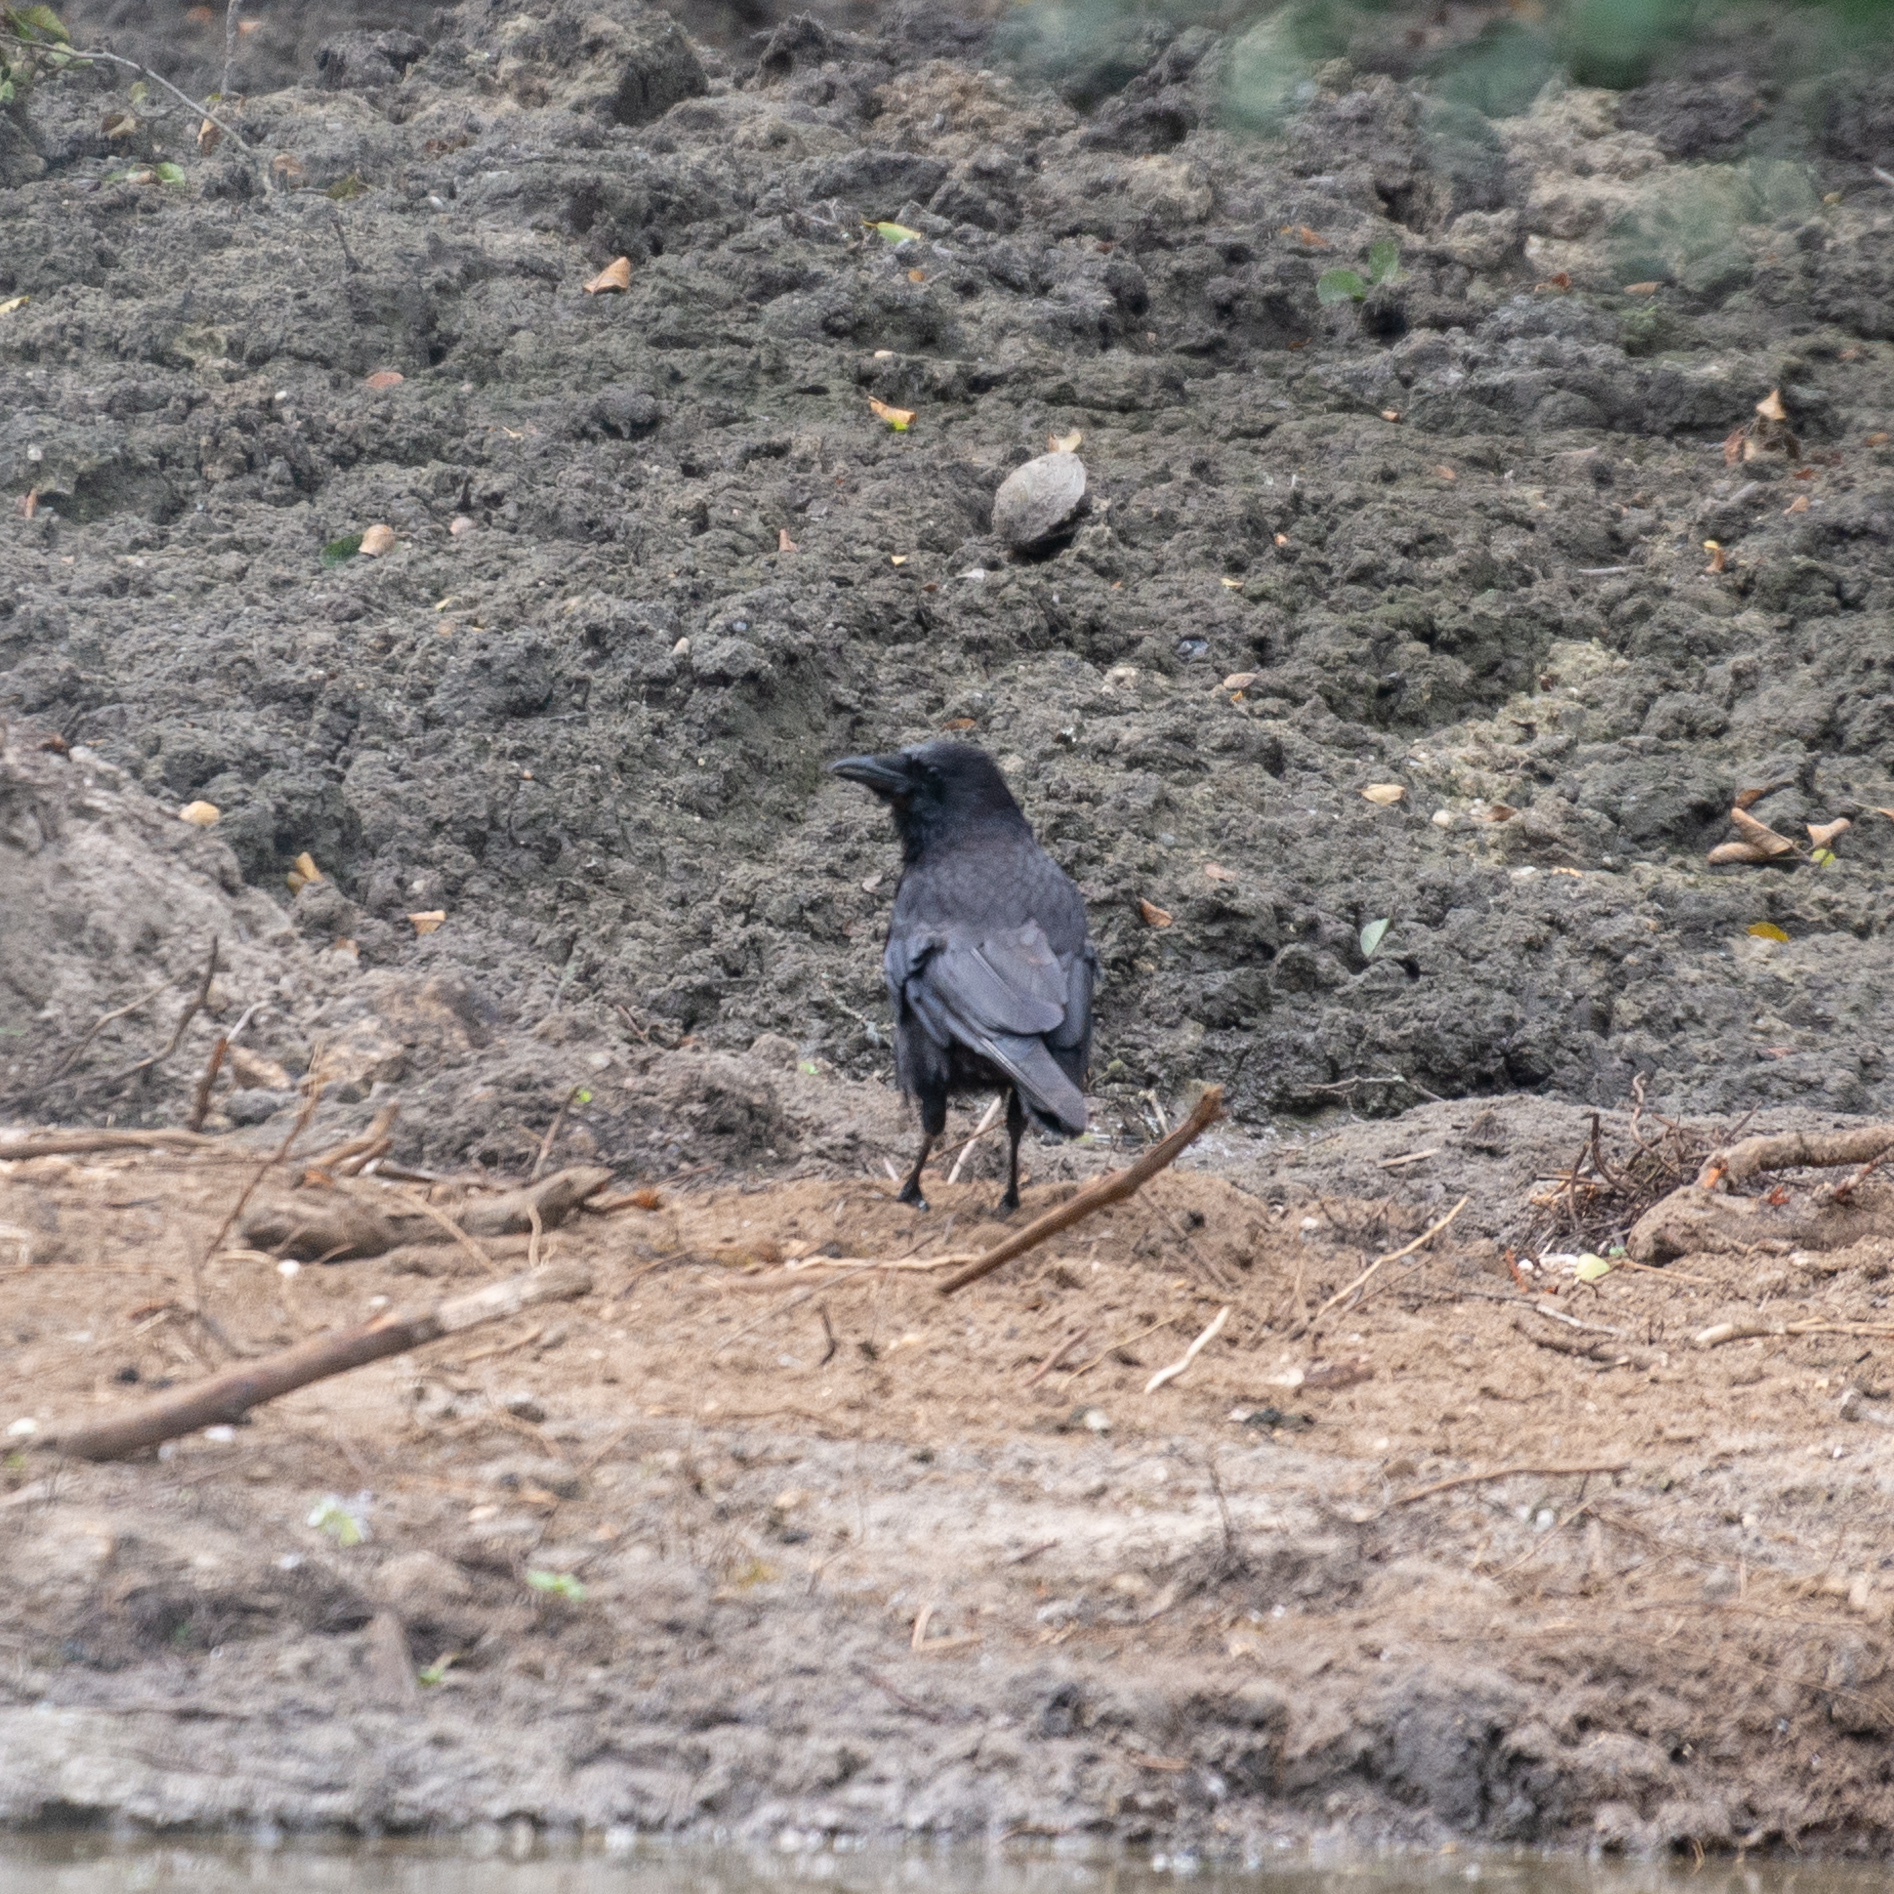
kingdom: Animalia
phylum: Chordata
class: Aves
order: Passeriformes
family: Corvidae
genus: Corvus
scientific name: Corvus corone
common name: Carrion crow
